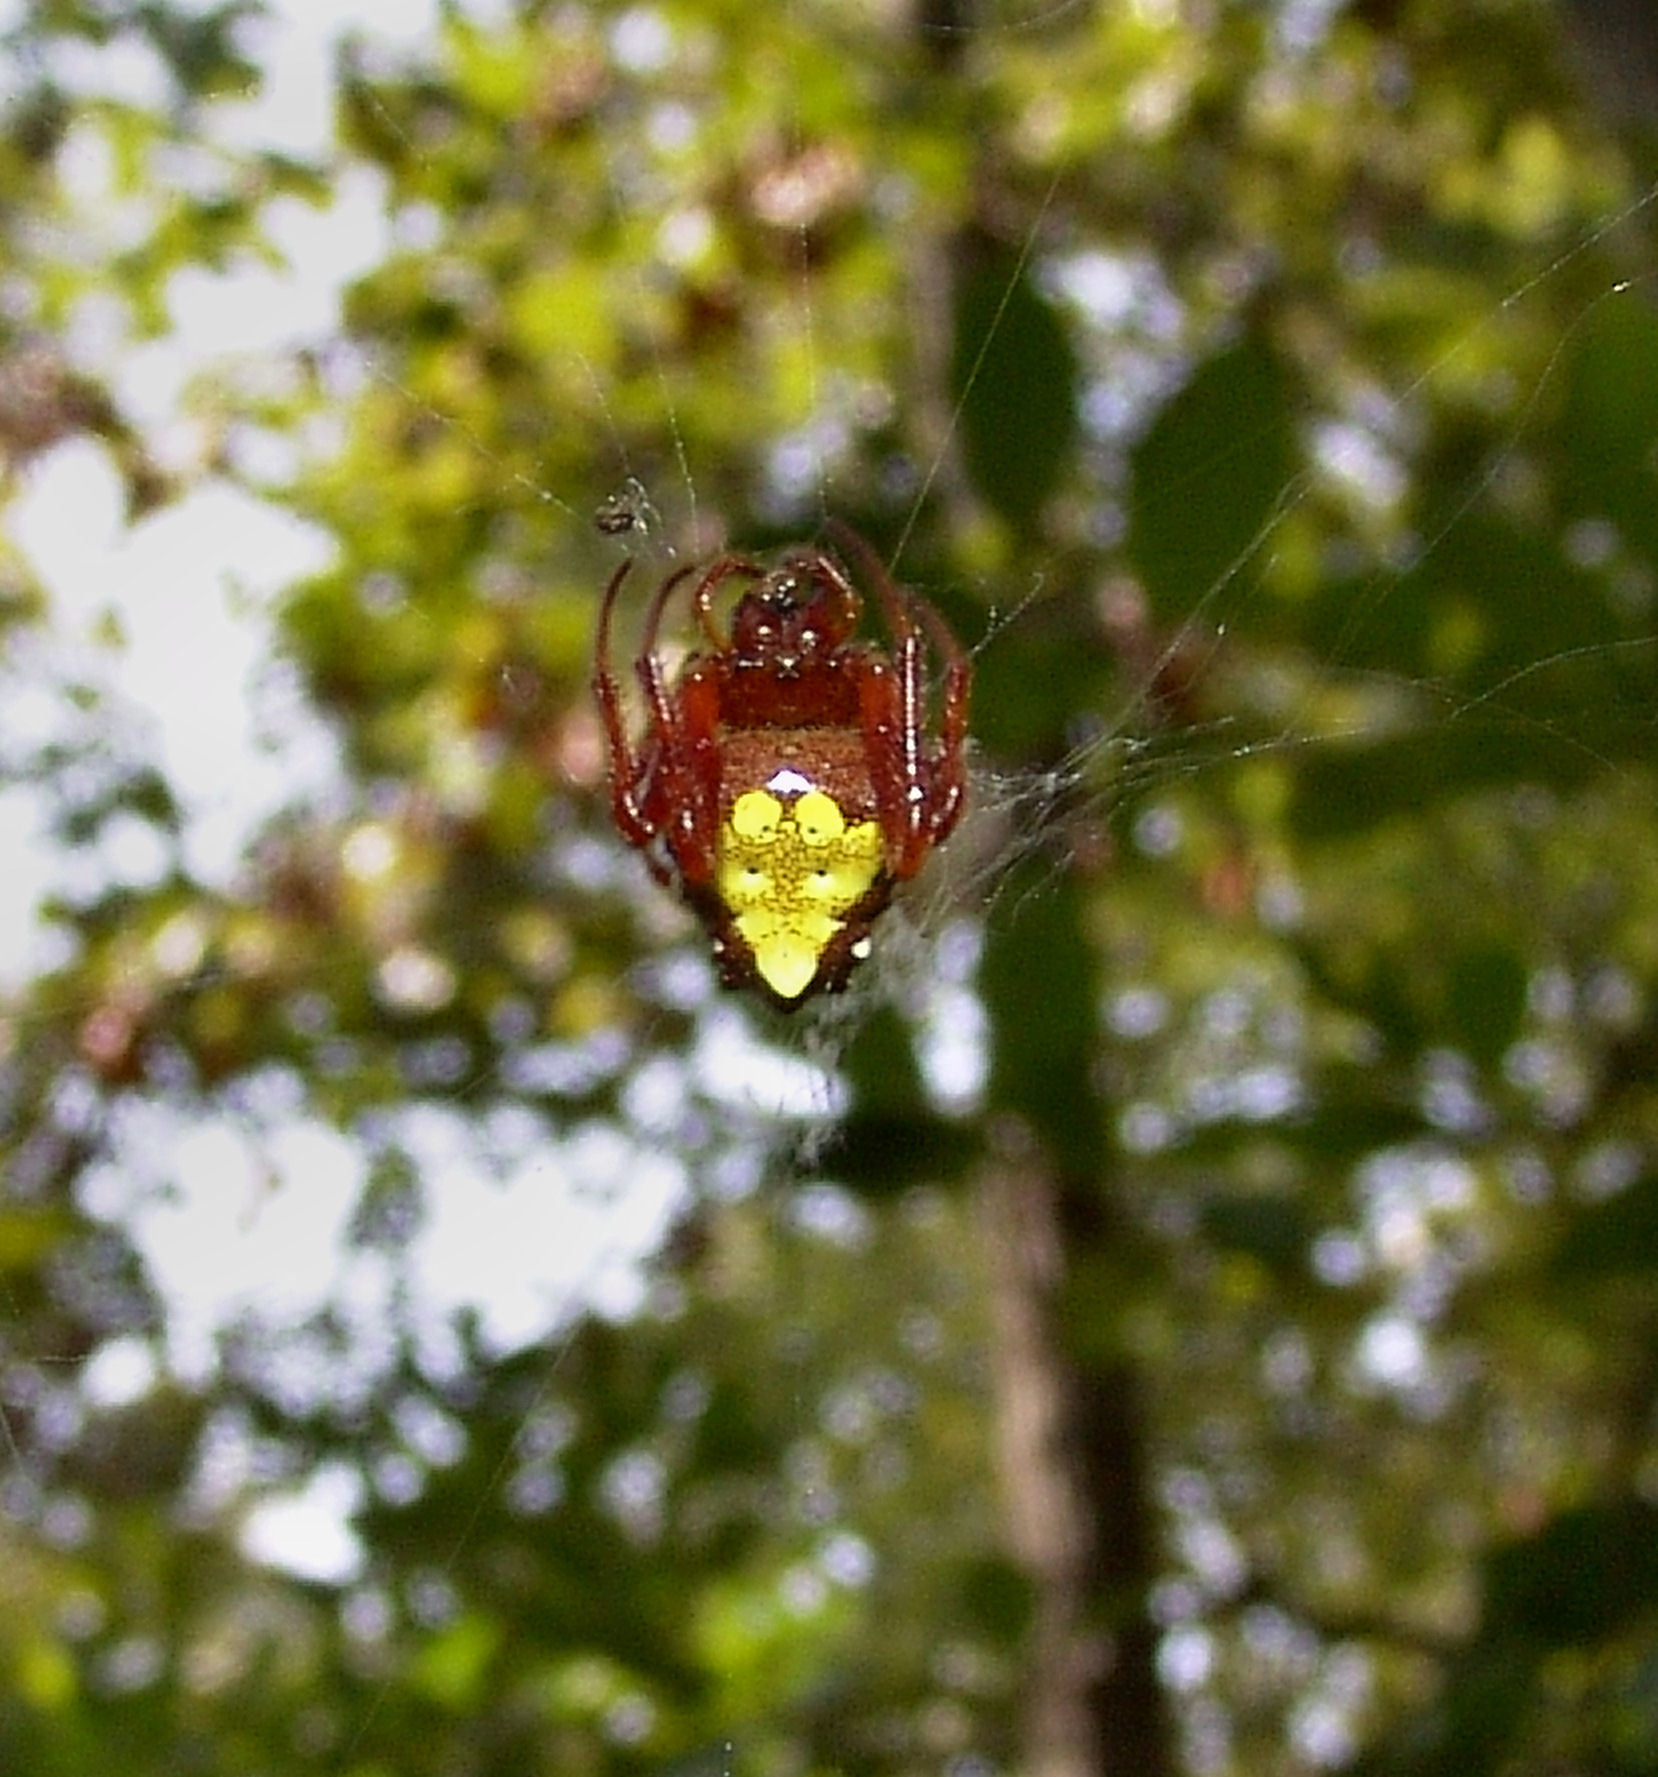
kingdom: Animalia
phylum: Arthropoda
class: Arachnida
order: Araneae
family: Araneidae
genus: Verrucosa
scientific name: Verrucosa arenata
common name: Orb weavers
